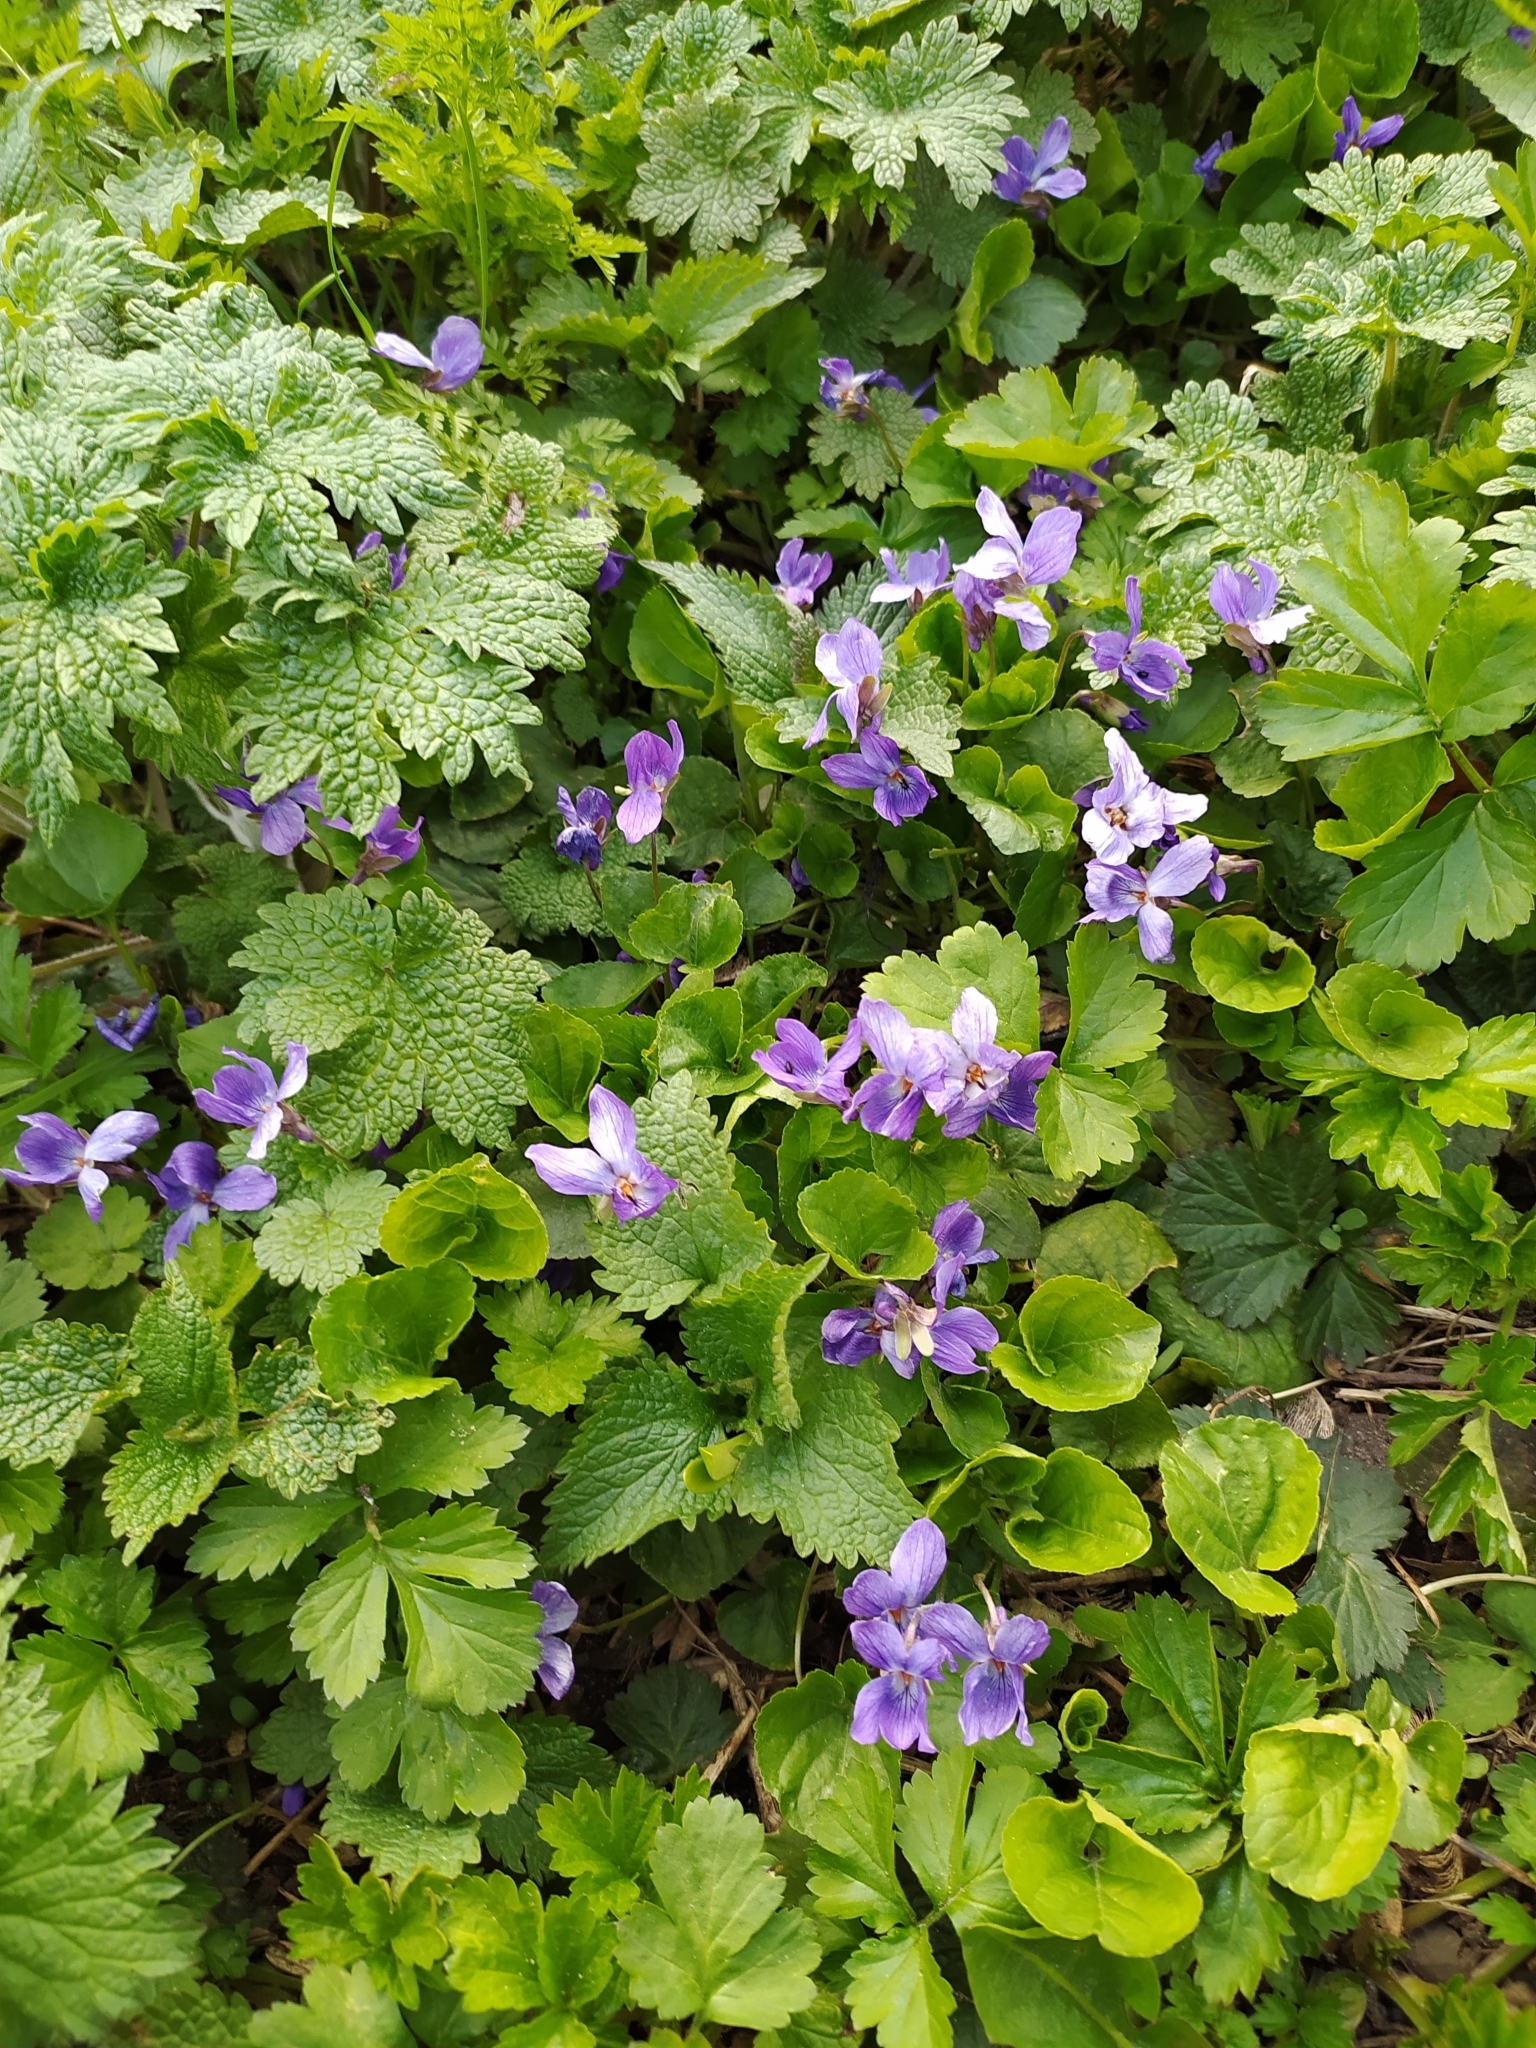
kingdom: Plantae
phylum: Tracheophyta
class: Magnoliopsida
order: Malpighiales
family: Violaceae
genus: Viola
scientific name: Viola odorata
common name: Sweet violet
